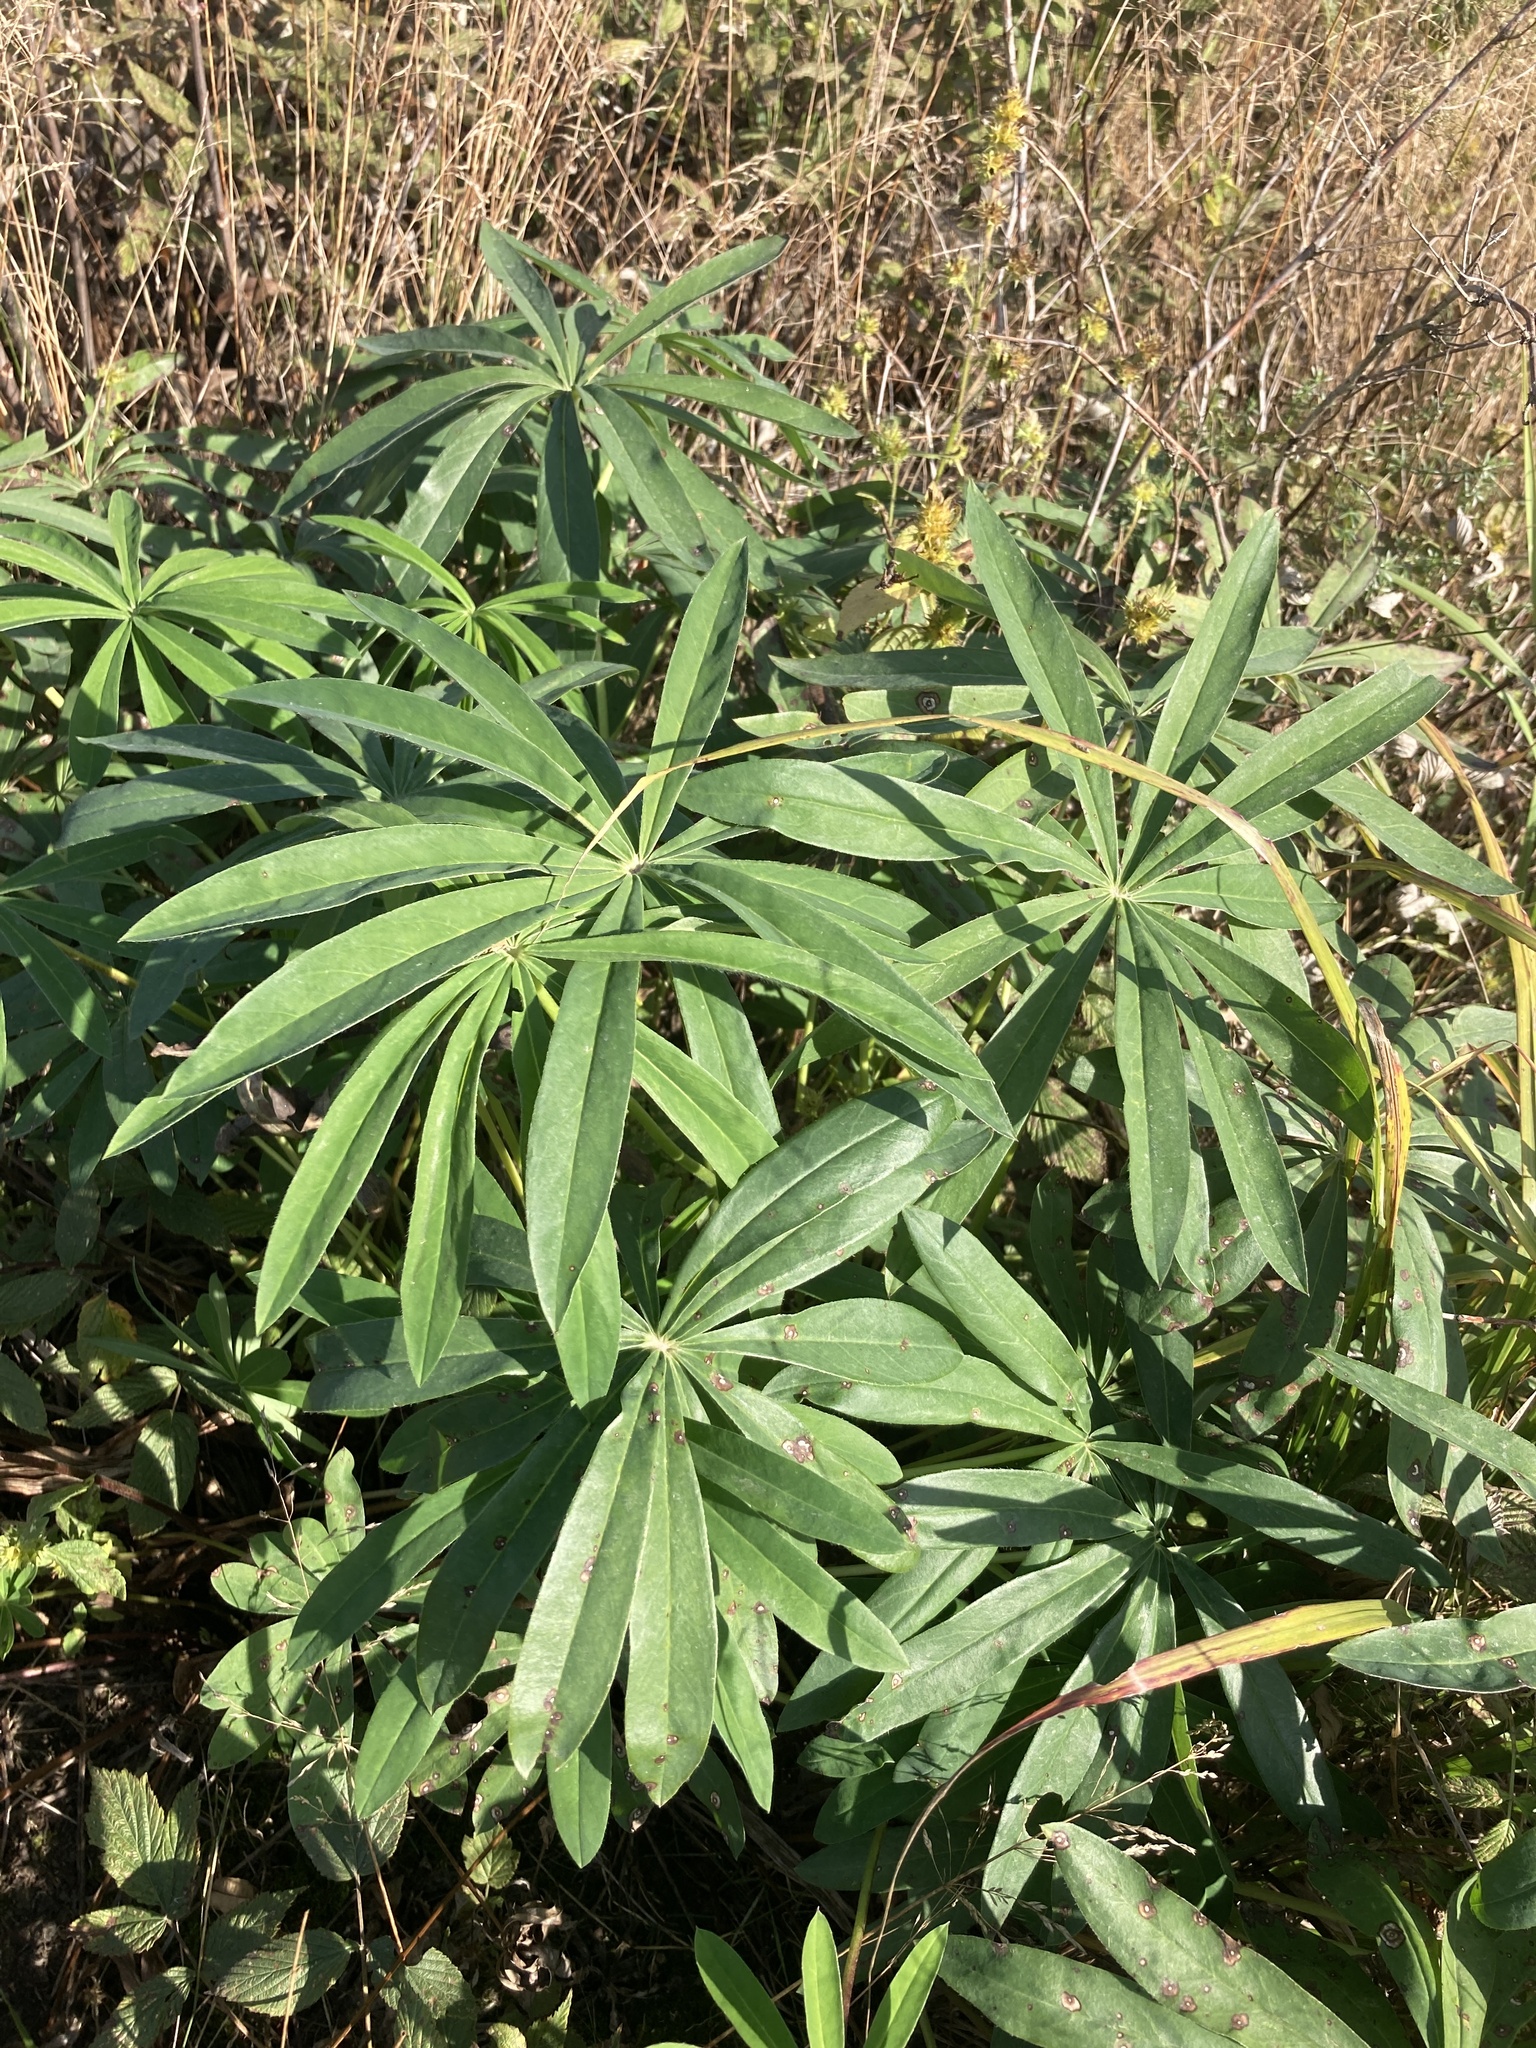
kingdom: Plantae
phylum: Tracheophyta
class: Magnoliopsida
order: Fabales
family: Fabaceae
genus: Lupinus
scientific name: Lupinus polyphyllus
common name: Garden lupin
